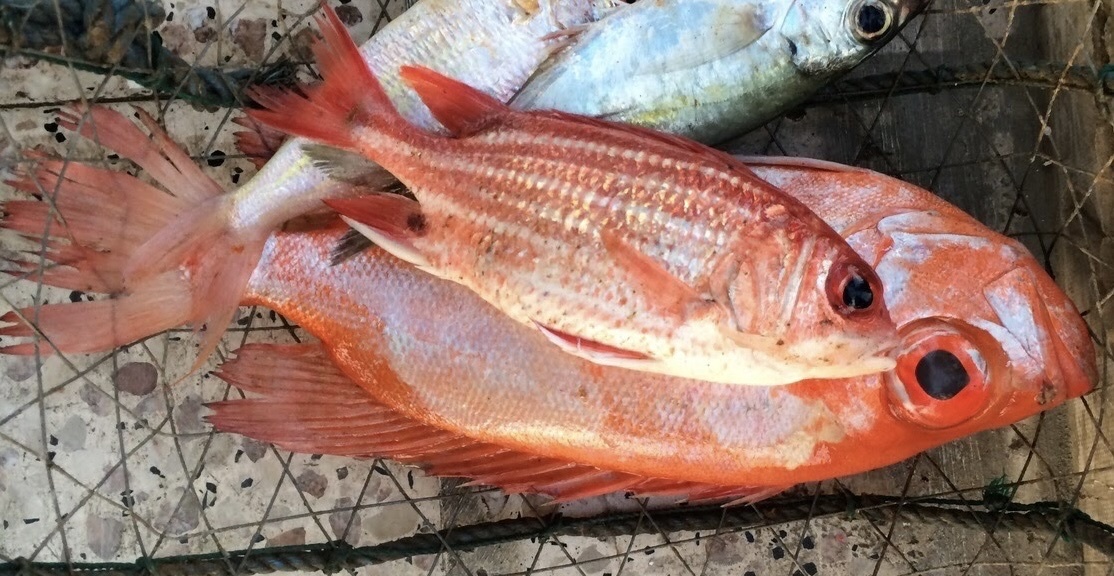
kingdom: Animalia
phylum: Chordata
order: Beryciformes
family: Holocentridae
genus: Sargocentron
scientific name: Sargocentron rubrum
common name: Redcoat
